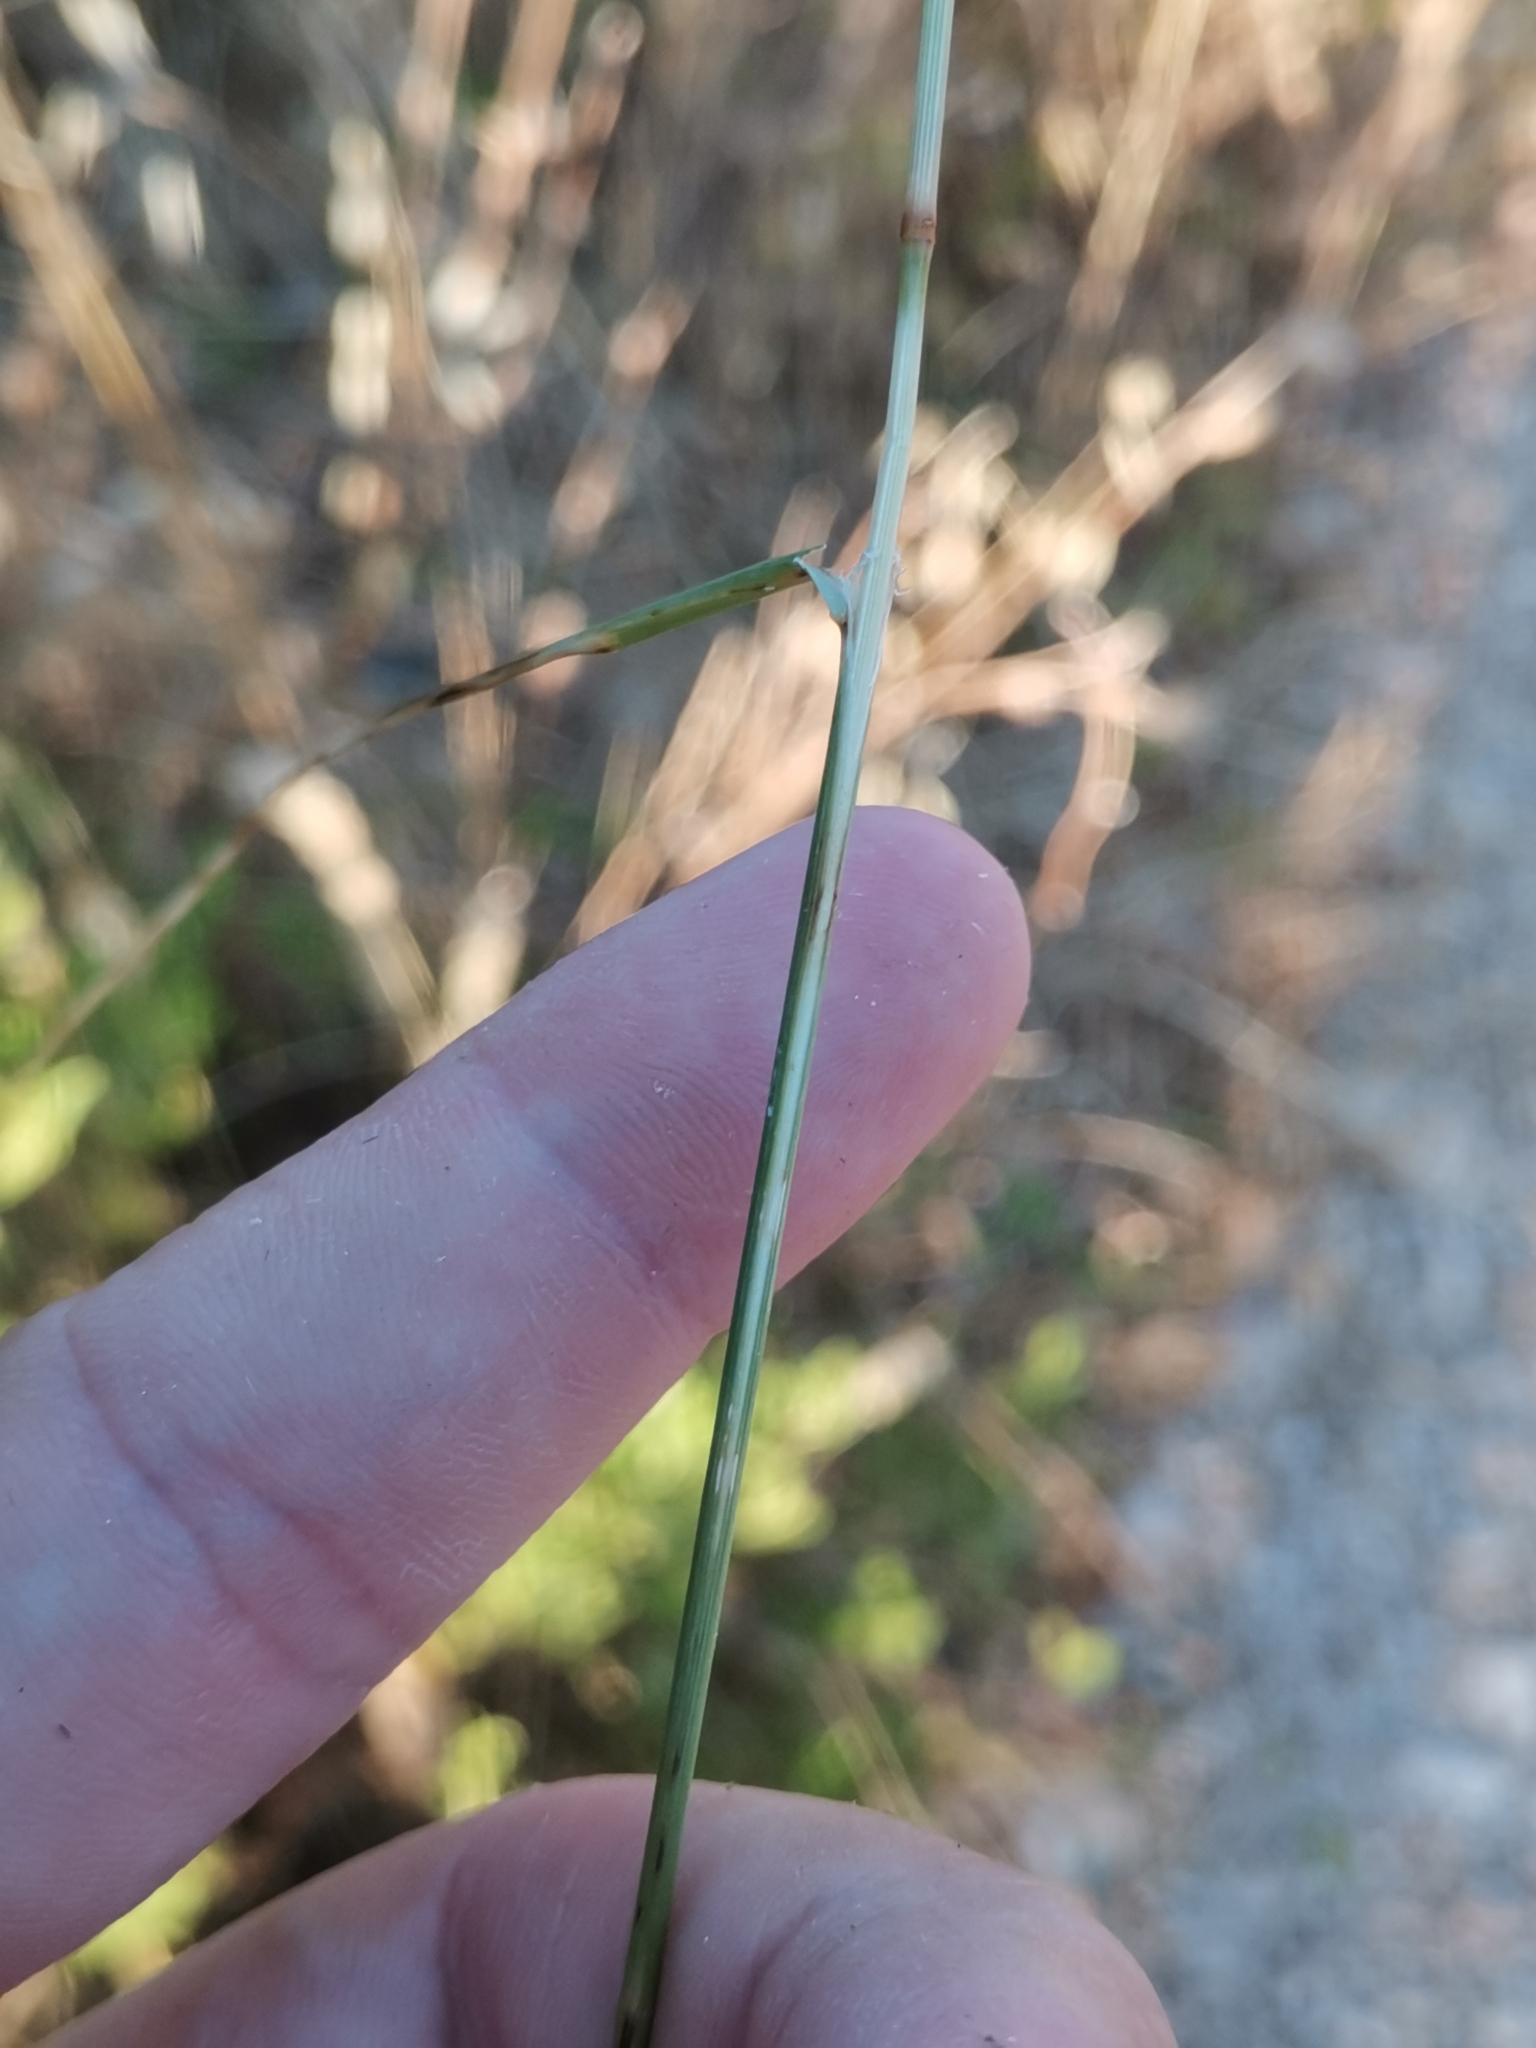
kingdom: Plantae
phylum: Tracheophyta
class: Liliopsida
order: Poales
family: Poaceae
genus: Melica
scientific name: Melica ciliata
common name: Hairy melicgrass
